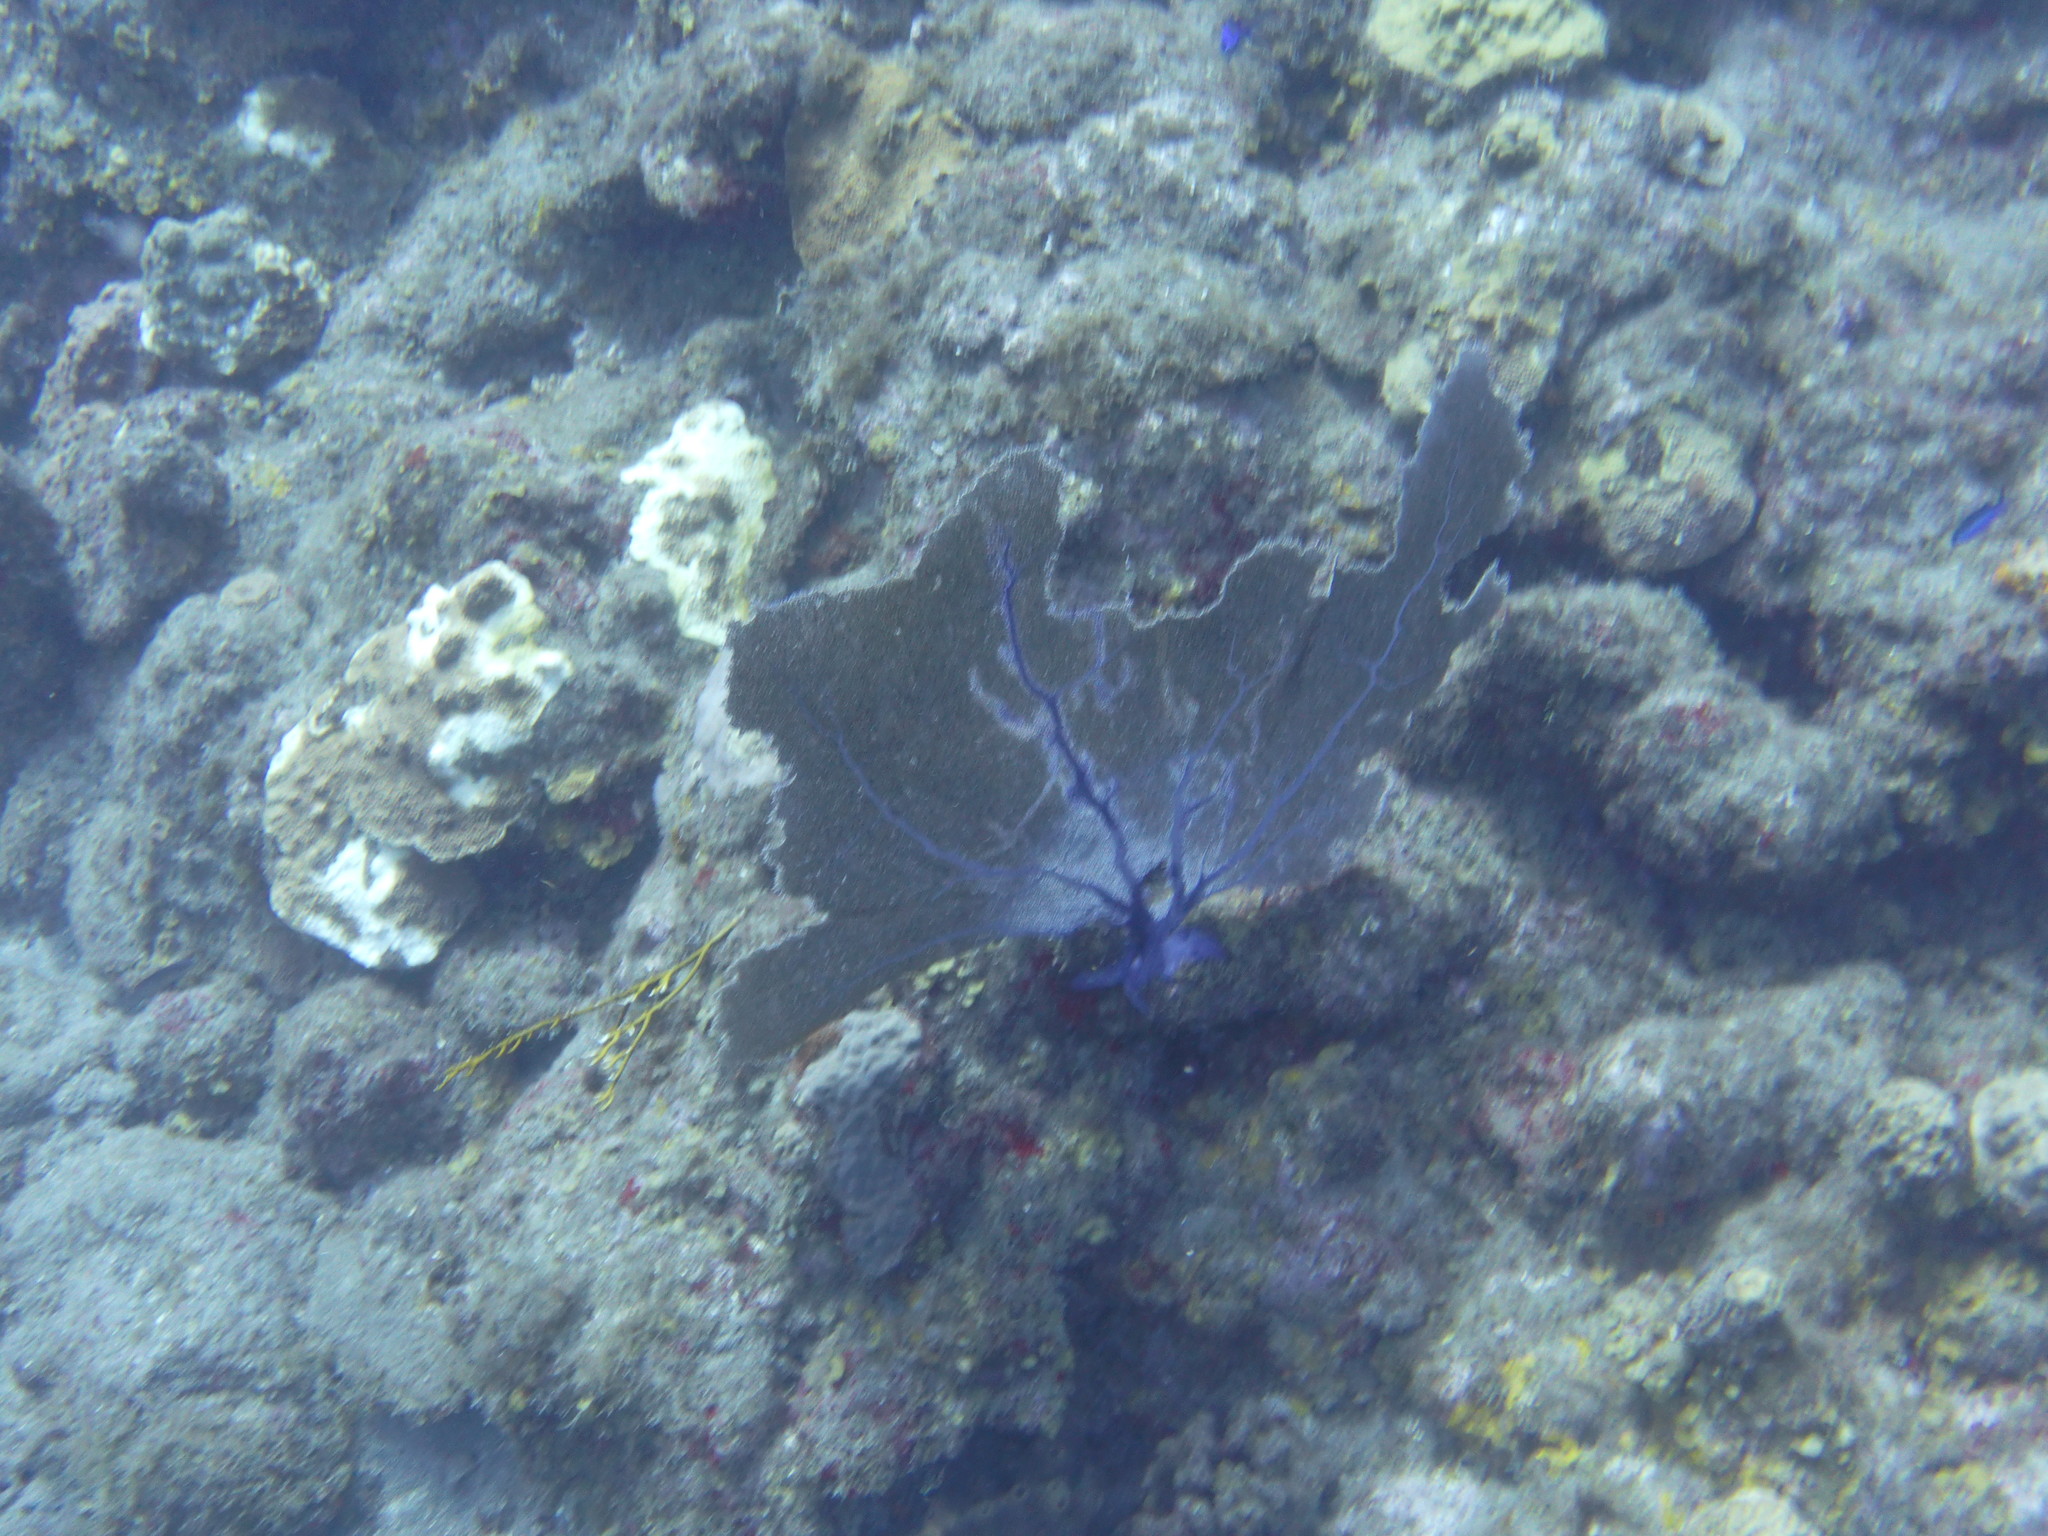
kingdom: Animalia
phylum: Cnidaria
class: Anthozoa
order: Malacalcyonacea
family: Gorgoniidae
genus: Gorgonia
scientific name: Gorgonia ventalina
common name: Common sea fan
